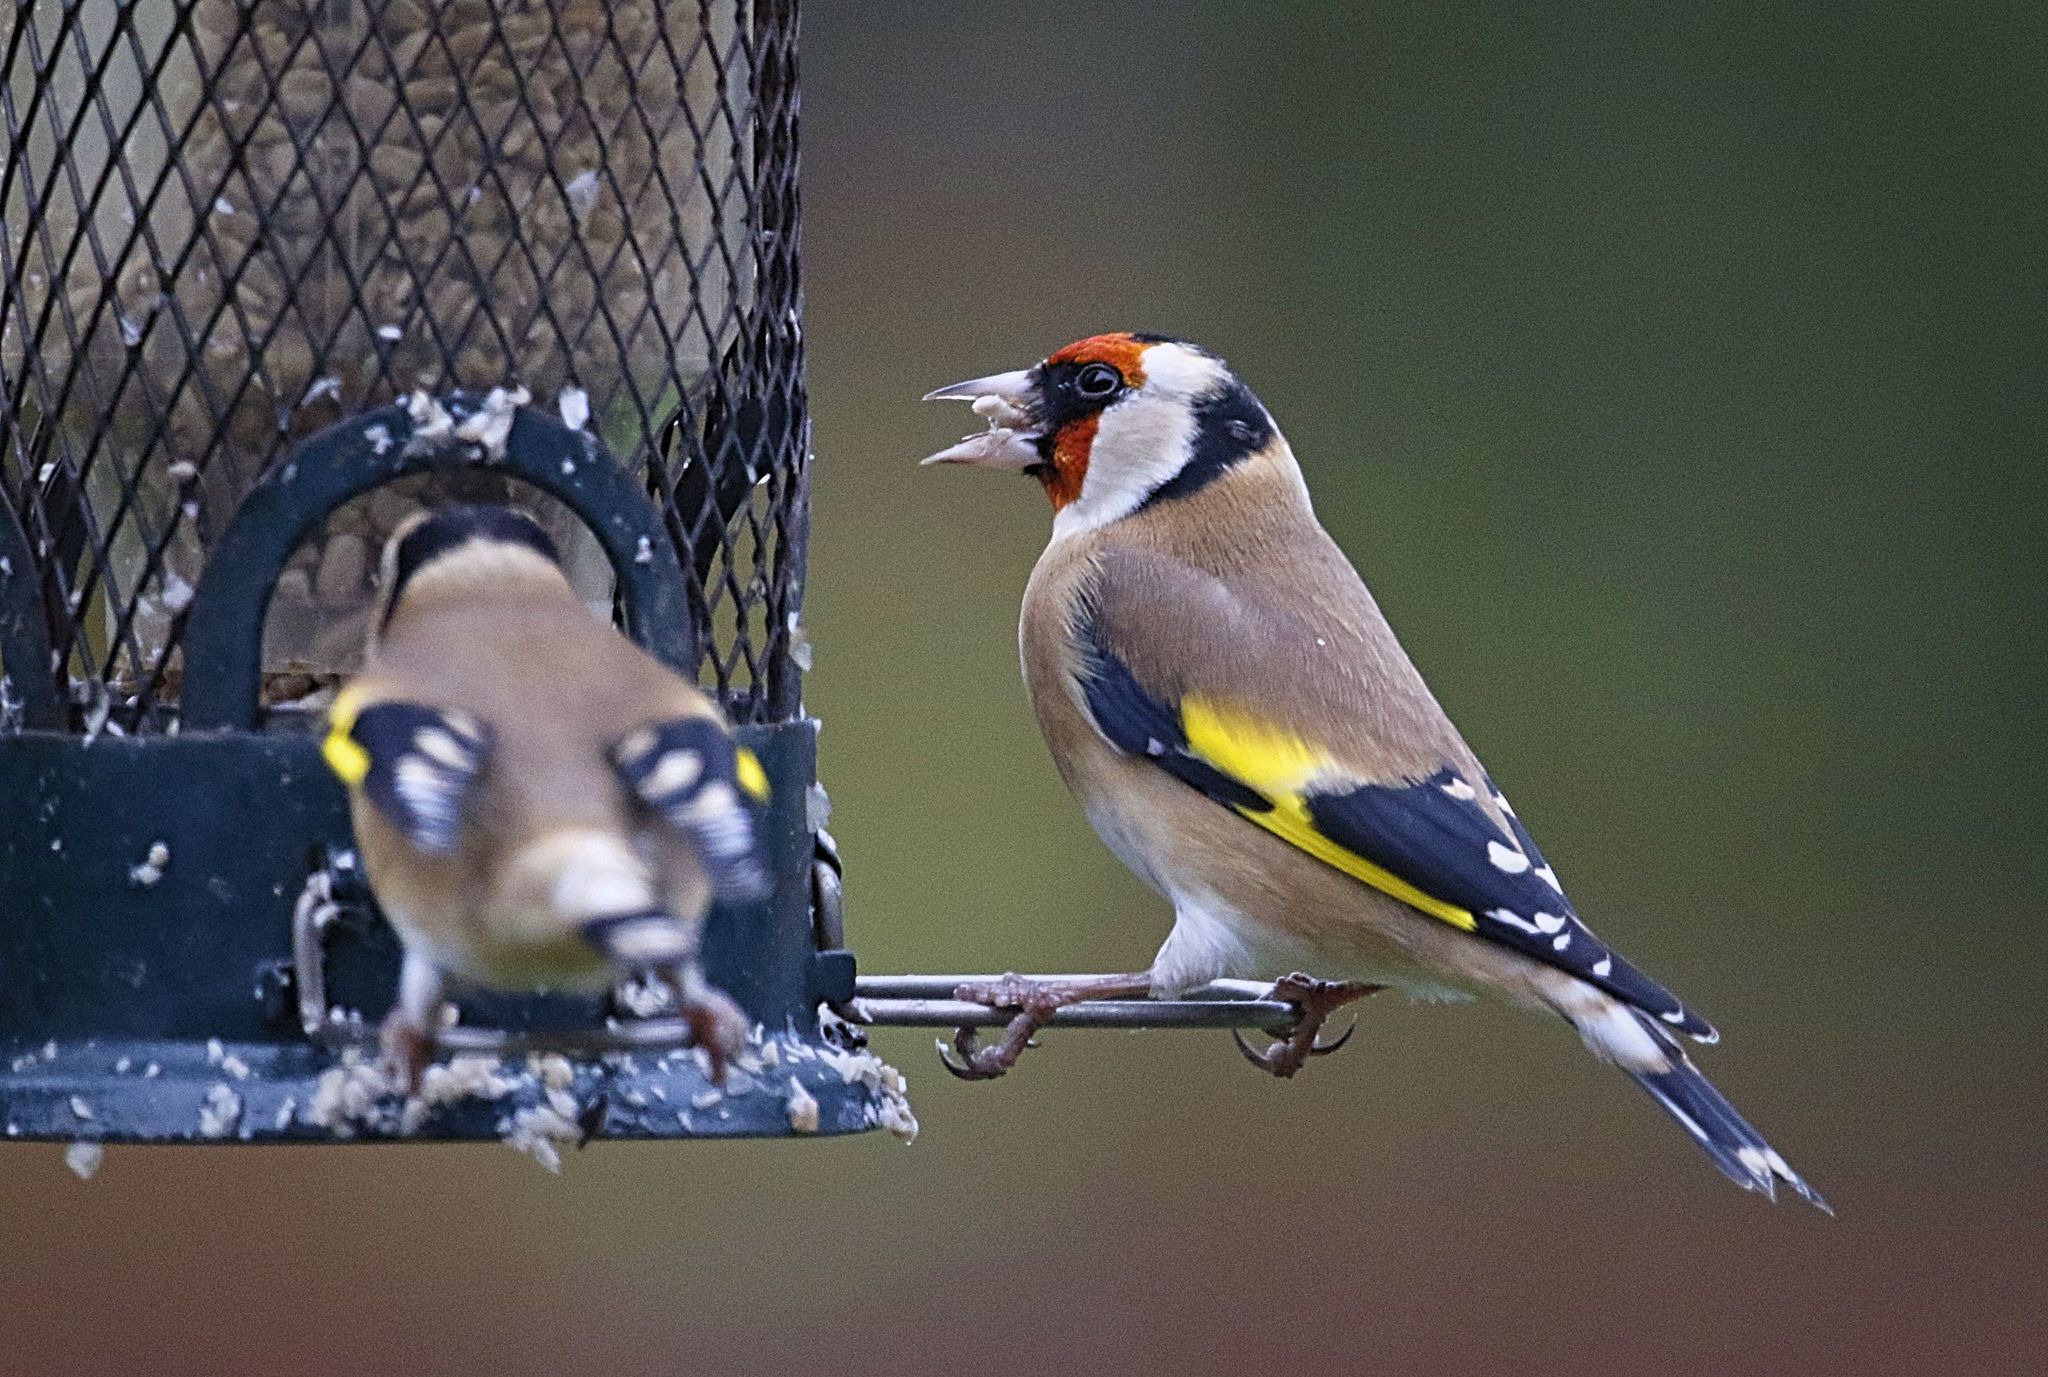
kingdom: Animalia
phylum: Chordata
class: Aves
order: Passeriformes
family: Fringillidae
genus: Carduelis
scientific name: Carduelis carduelis
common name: European goldfinch
